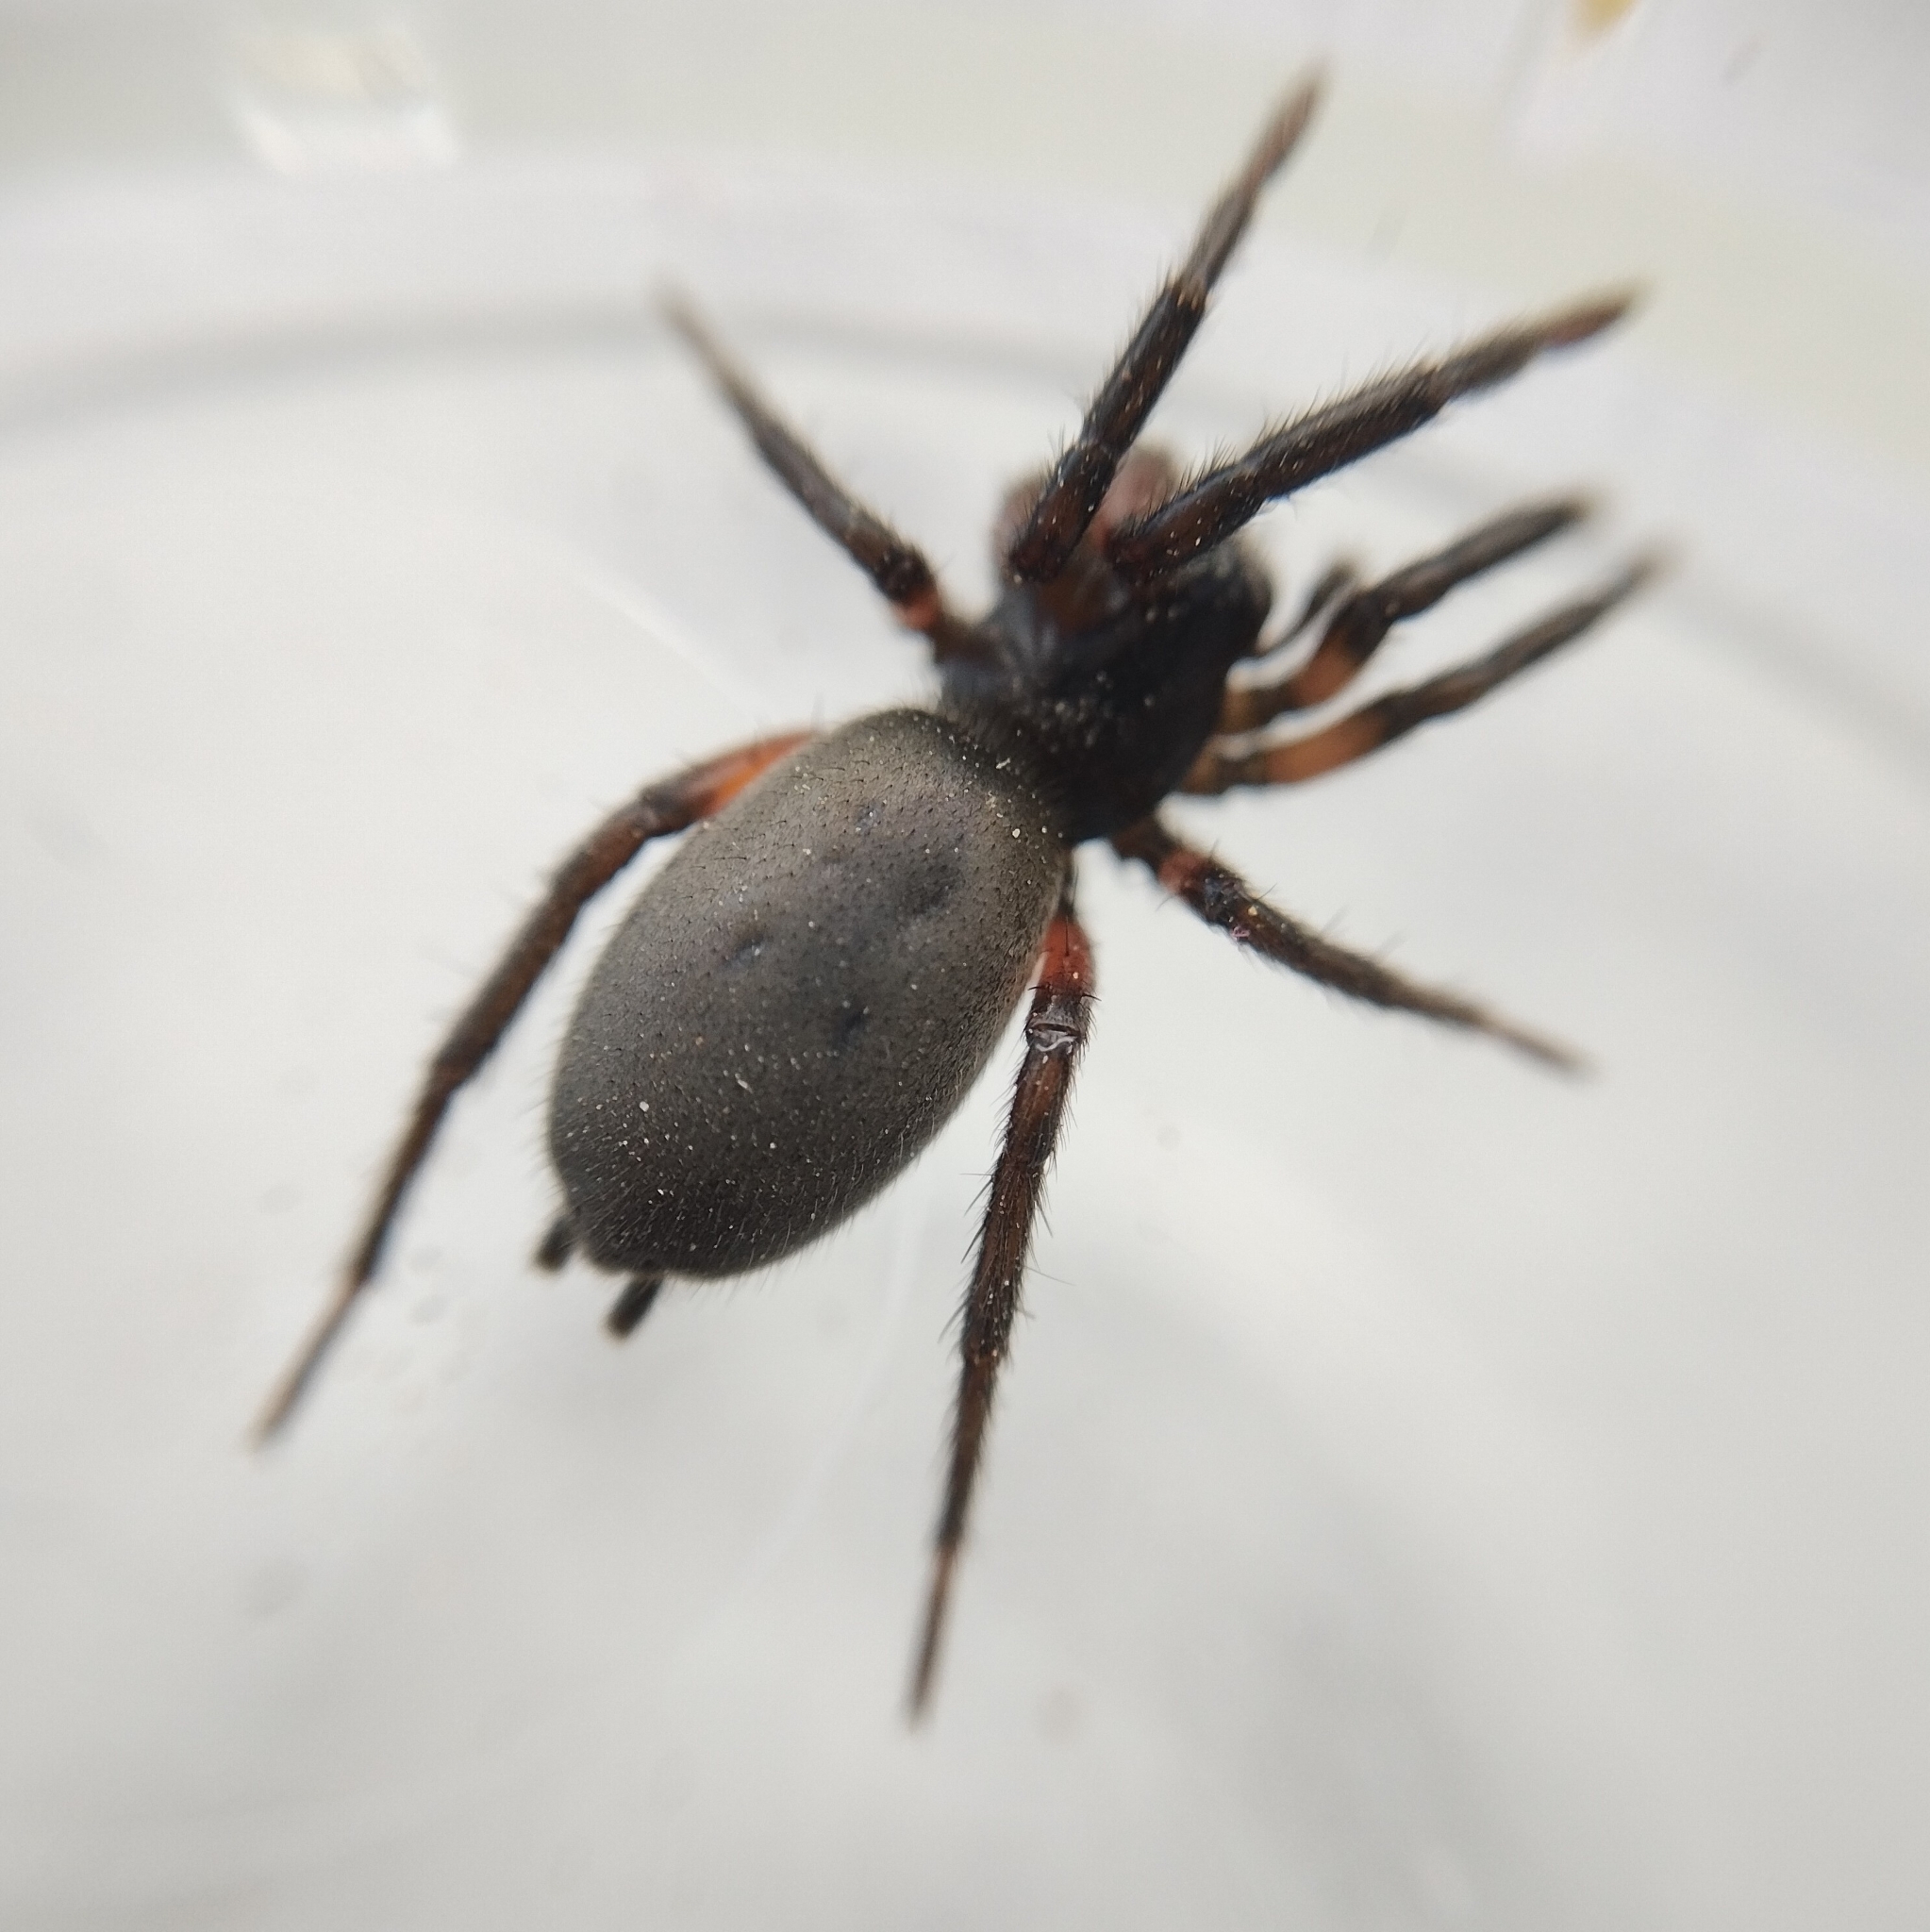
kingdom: Animalia
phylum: Arthropoda
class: Arachnida
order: Araneae
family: Gnaphosidae
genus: Gnaphosa
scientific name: Gnaphosa lucifuga
